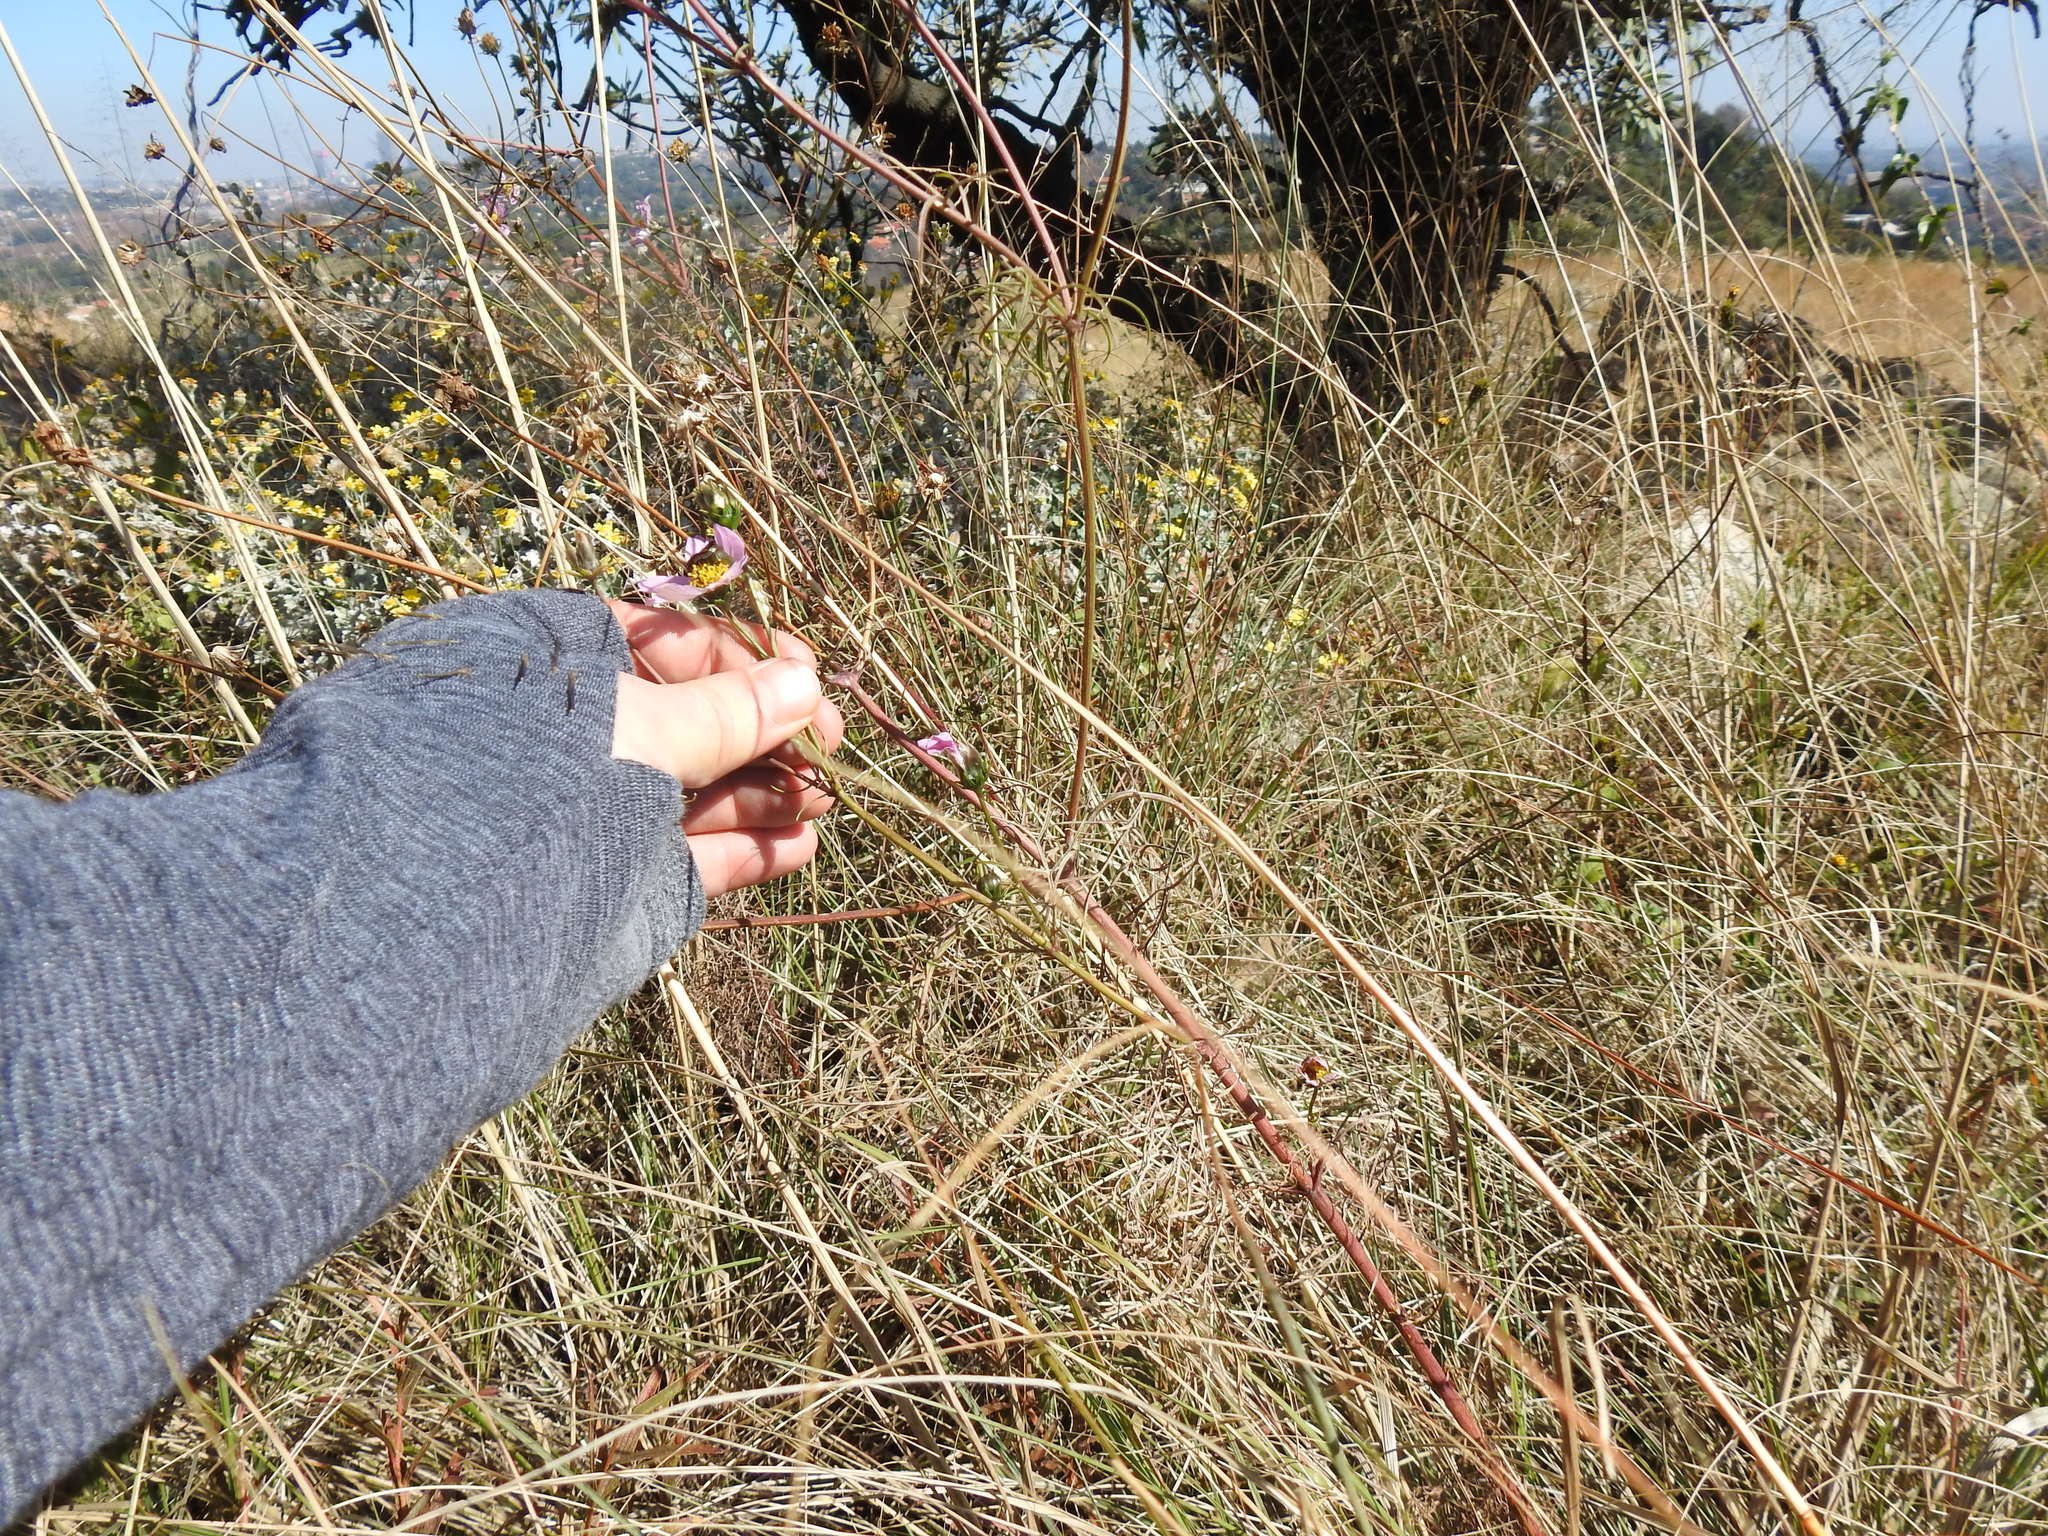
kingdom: Plantae
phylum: Tracheophyta
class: Magnoliopsida
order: Asterales
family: Asteraceae
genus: Cosmos
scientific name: Cosmos bipinnatus
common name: Garden cosmos
